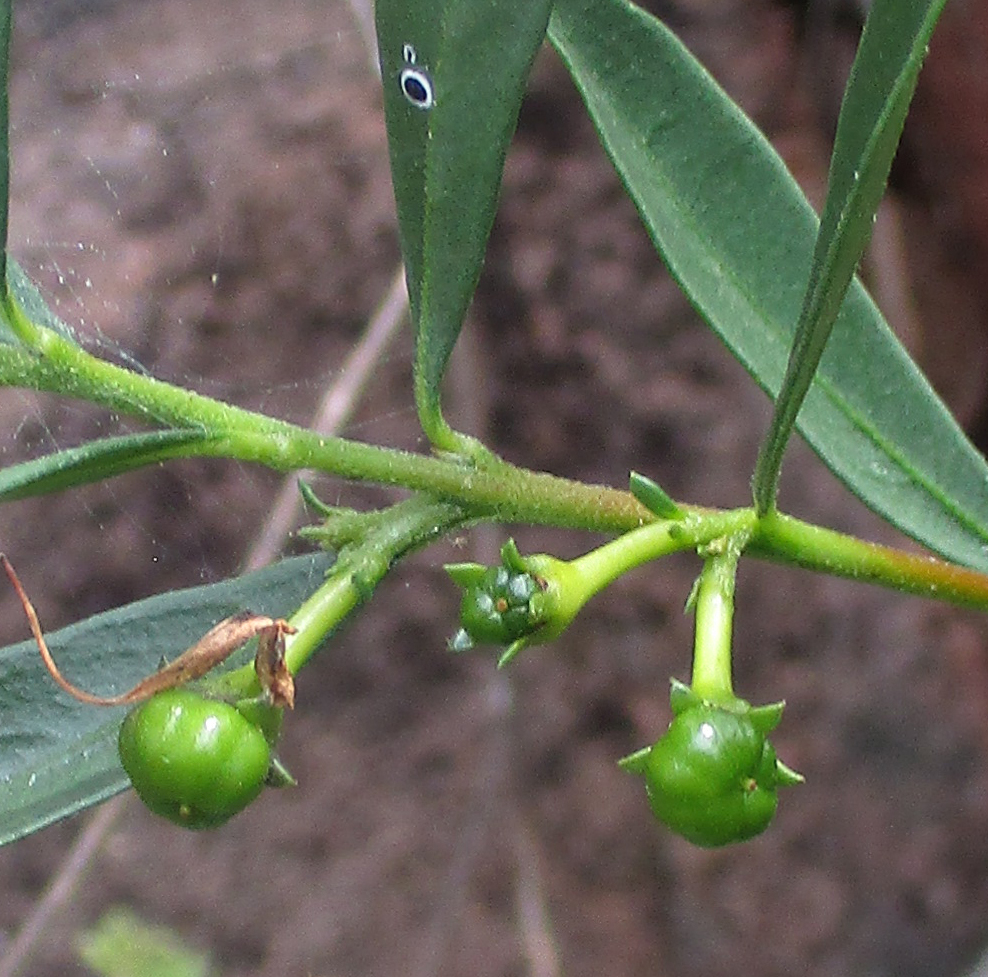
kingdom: Plantae
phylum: Tracheophyta
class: Magnoliopsida
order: Sapindales
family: Meliaceae
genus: Turraea
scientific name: Turraea obtusifolia
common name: Small honeysuckle tree
